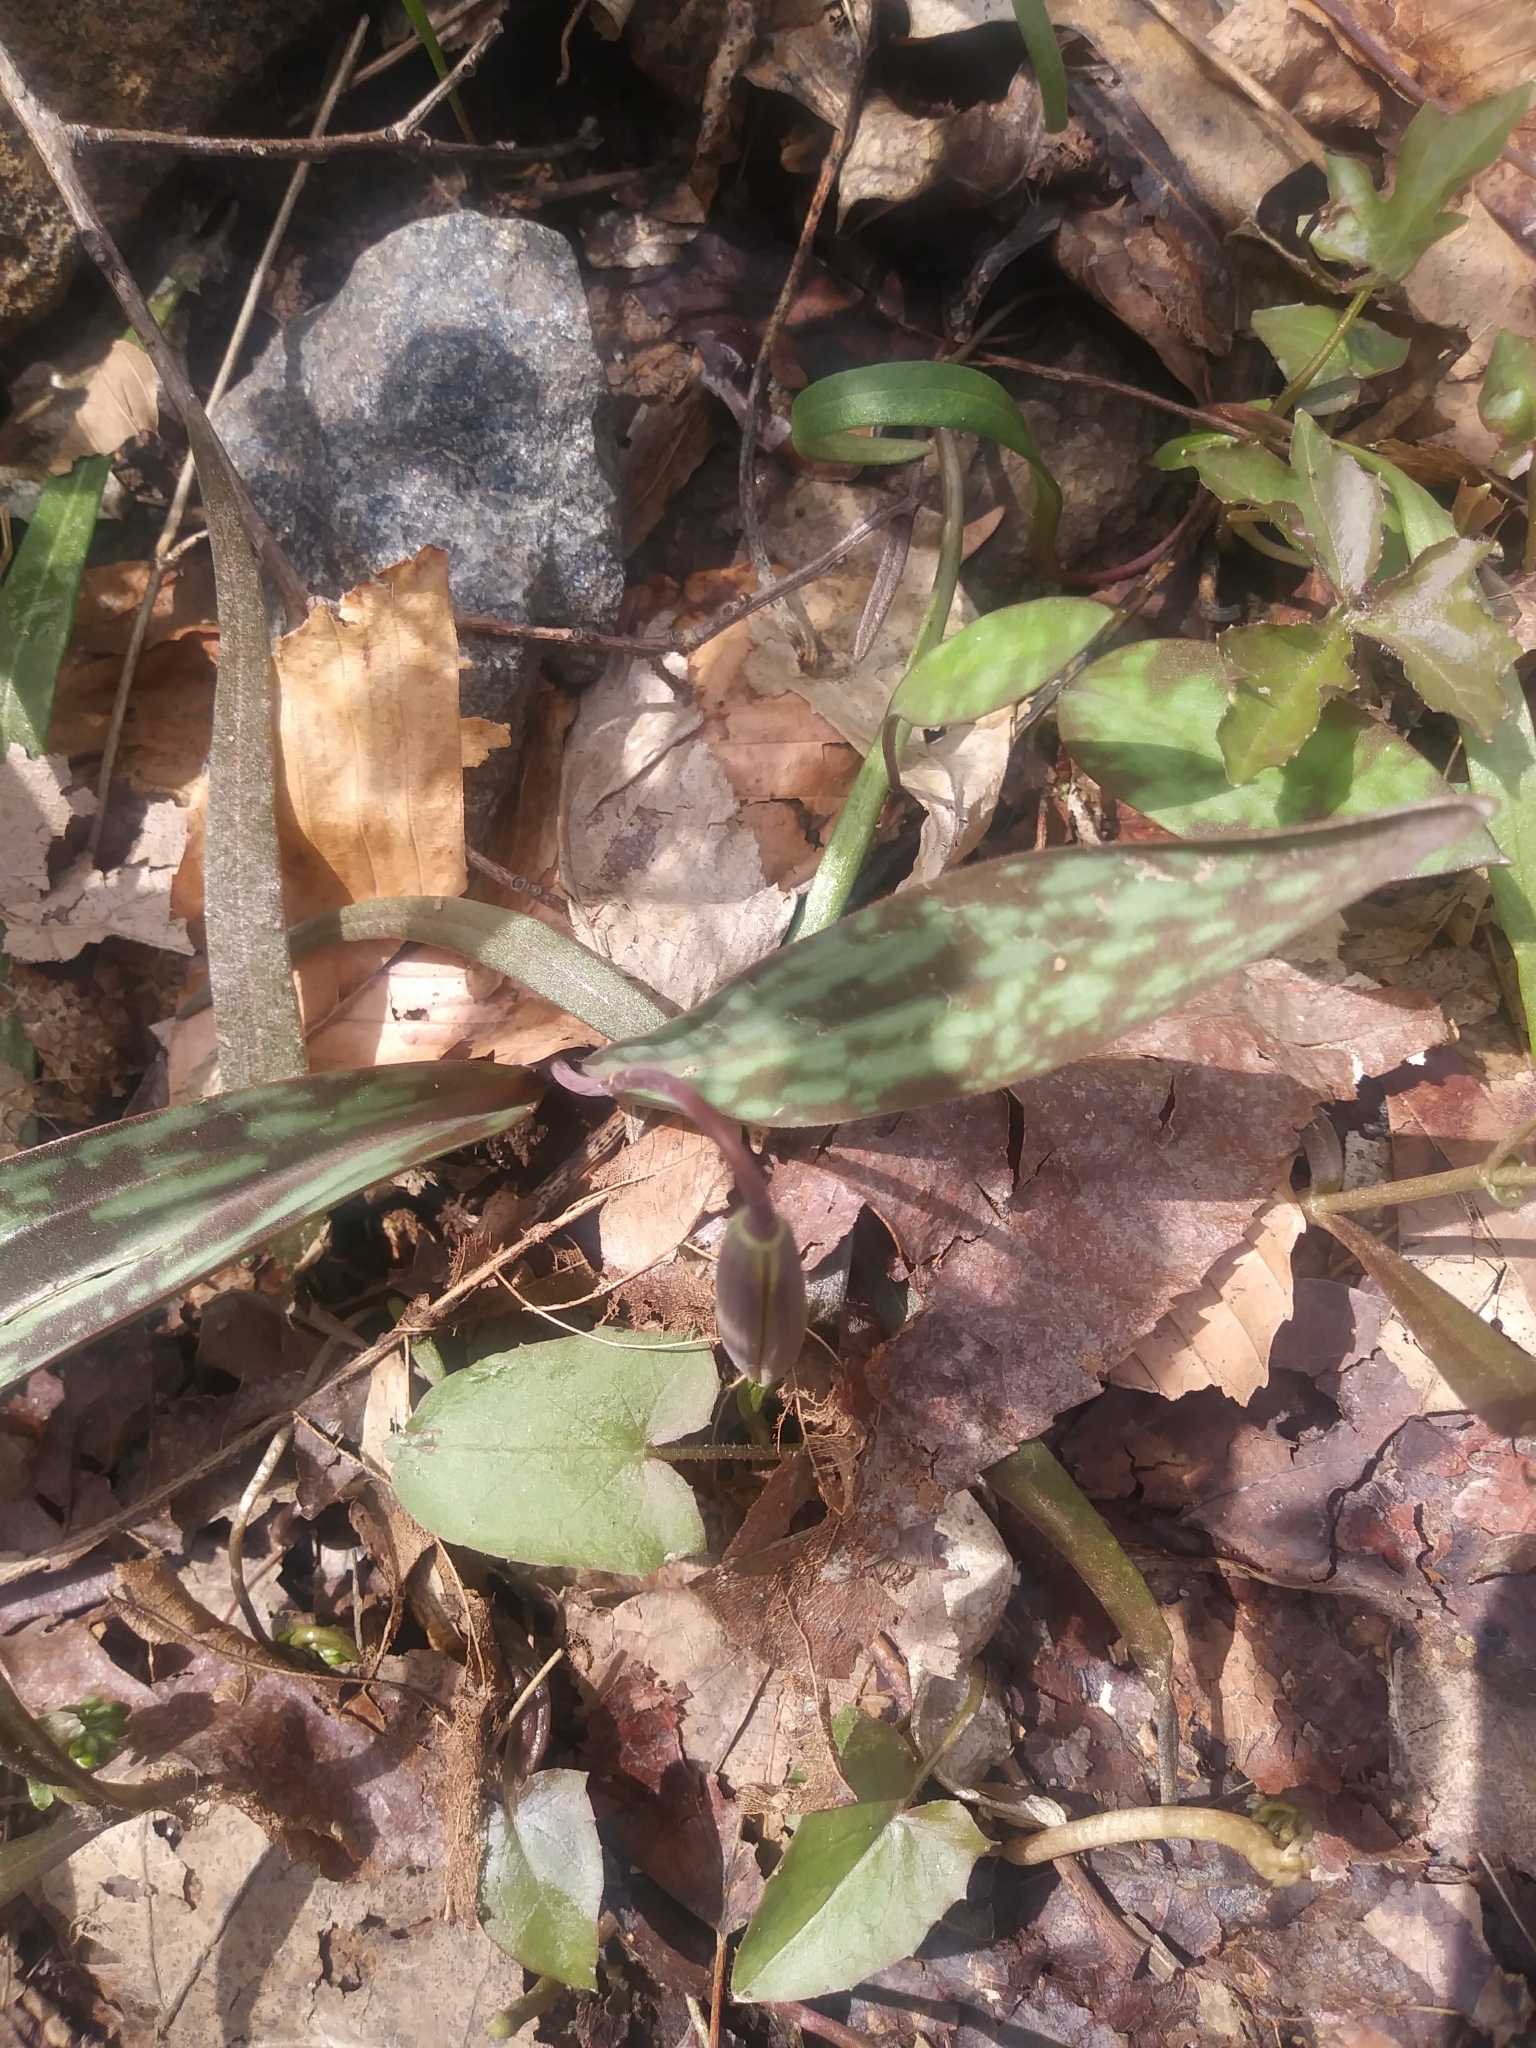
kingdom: Plantae
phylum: Tracheophyta
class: Liliopsida
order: Liliales
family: Liliaceae
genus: Erythronium
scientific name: Erythronium americanum
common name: Yellow adder's-tongue
